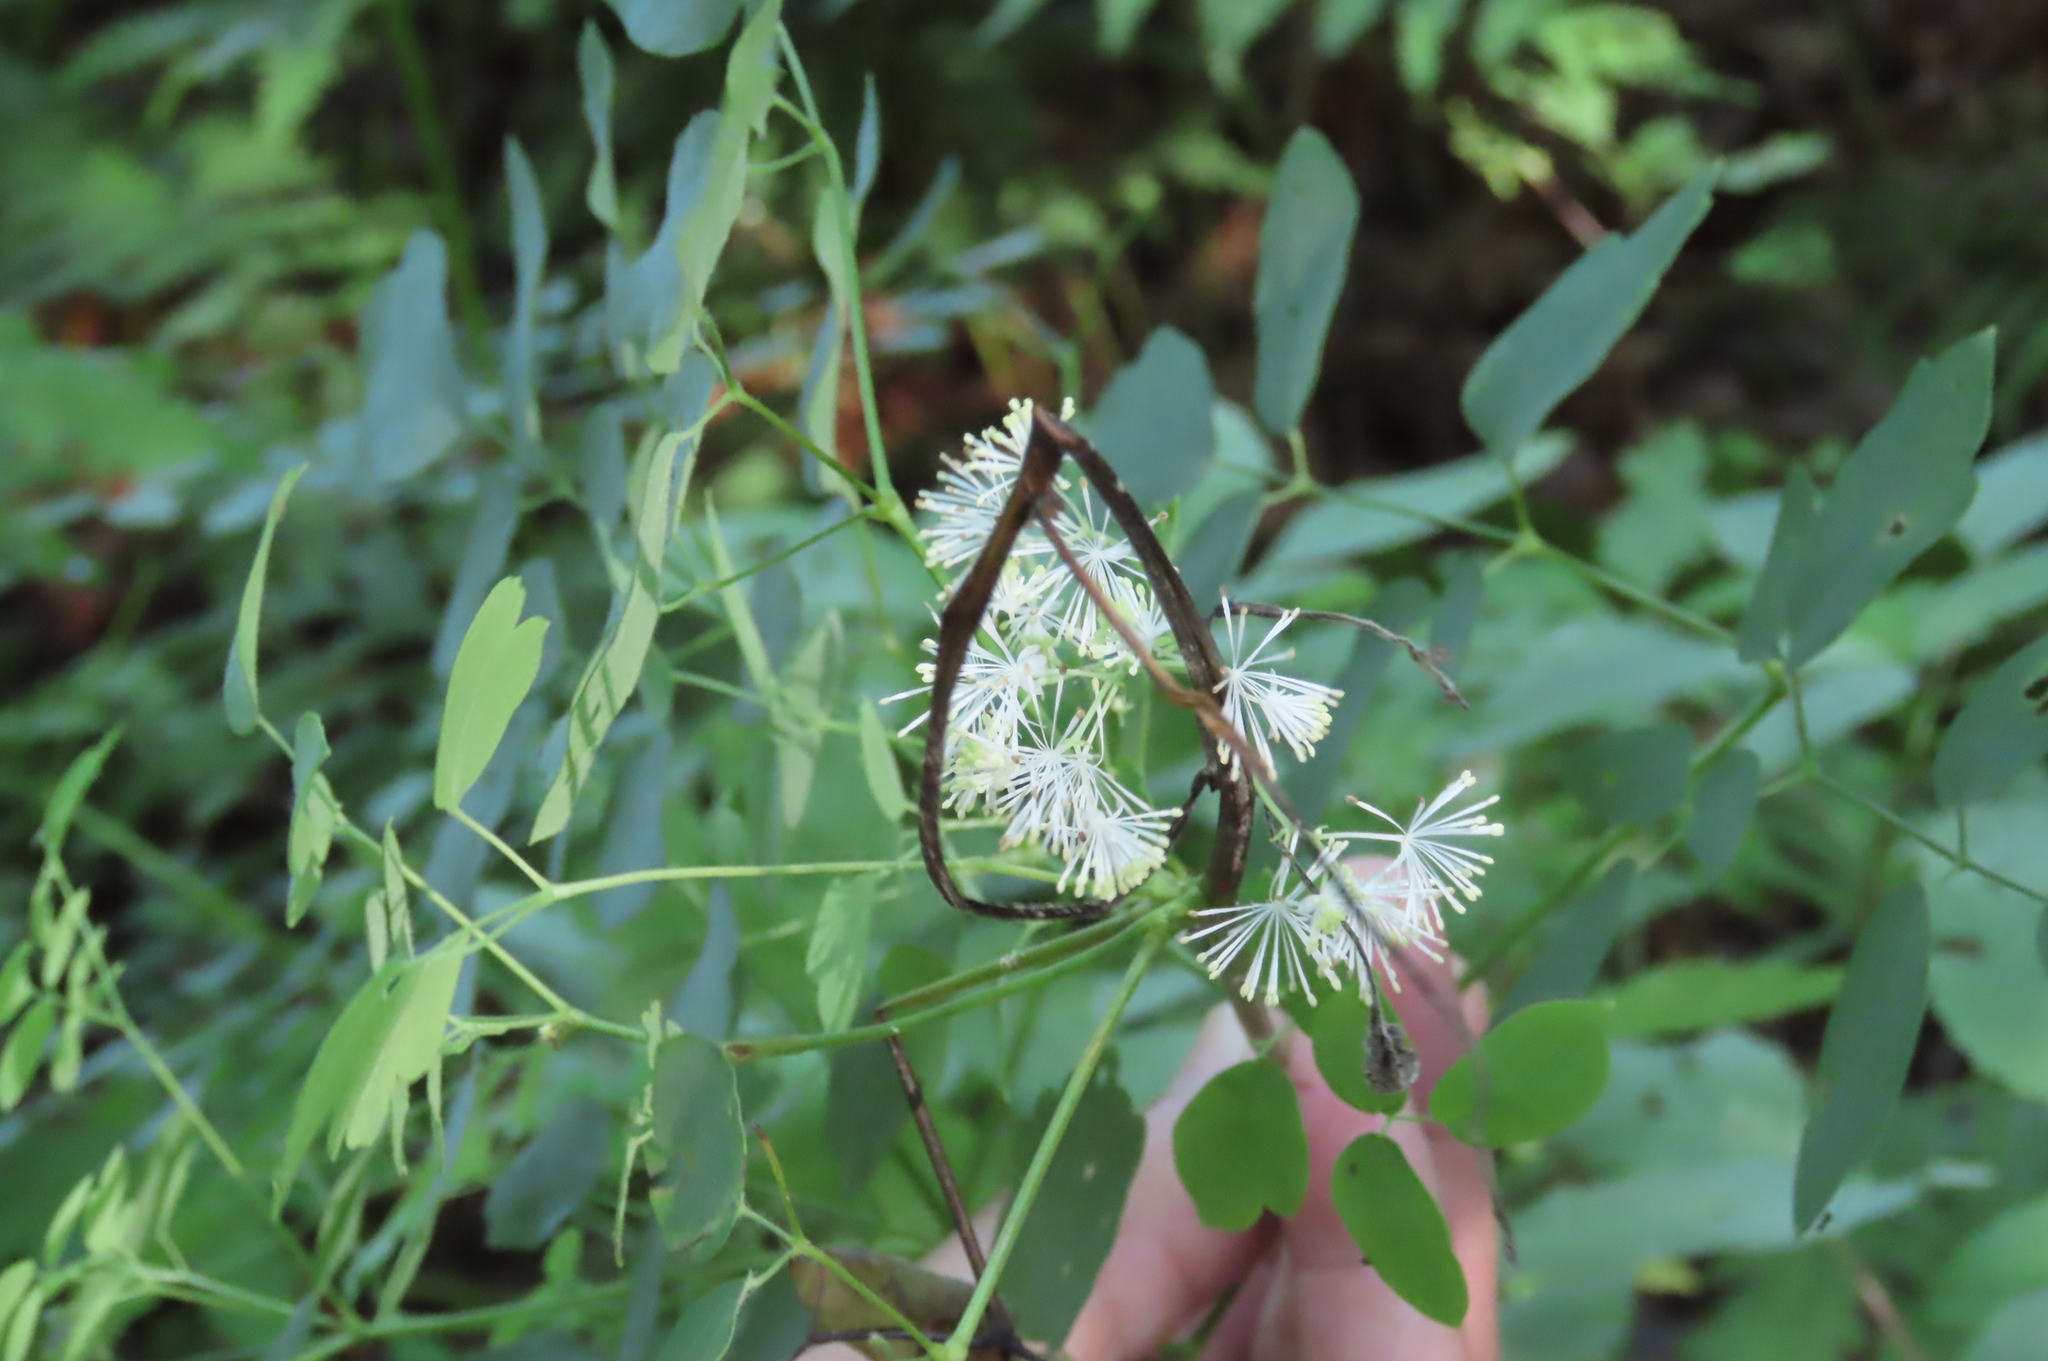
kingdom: Plantae
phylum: Tracheophyta
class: Magnoliopsida
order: Ranunculales
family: Ranunculaceae
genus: Thalictrum
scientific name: Thalictrum pubescens
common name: King-of-the-meadow
